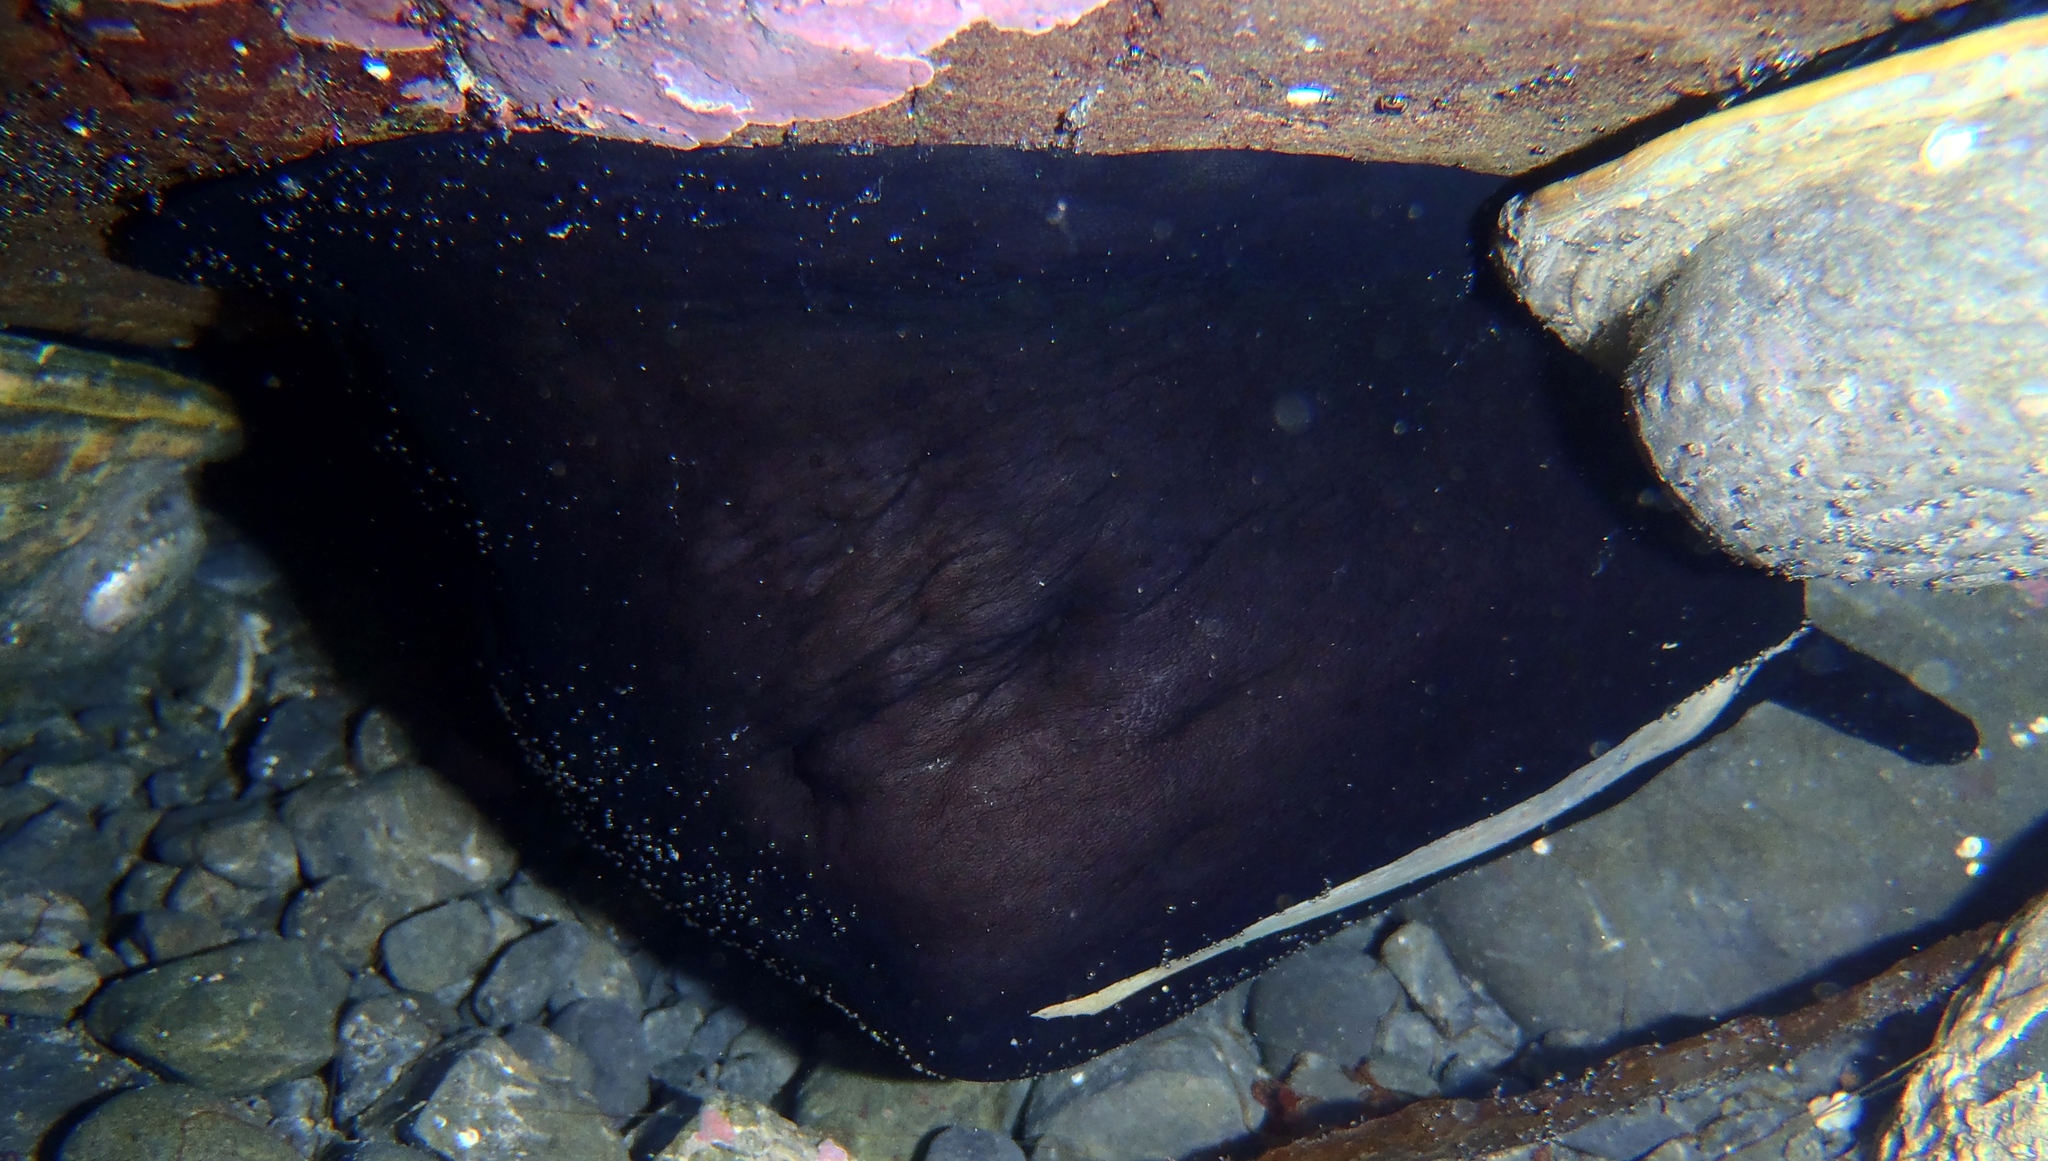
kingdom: Animalia
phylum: Mollusca
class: Gastropoda
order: Lepetellida
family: Fissurellidae
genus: Scutus
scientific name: Scutus breviculus
